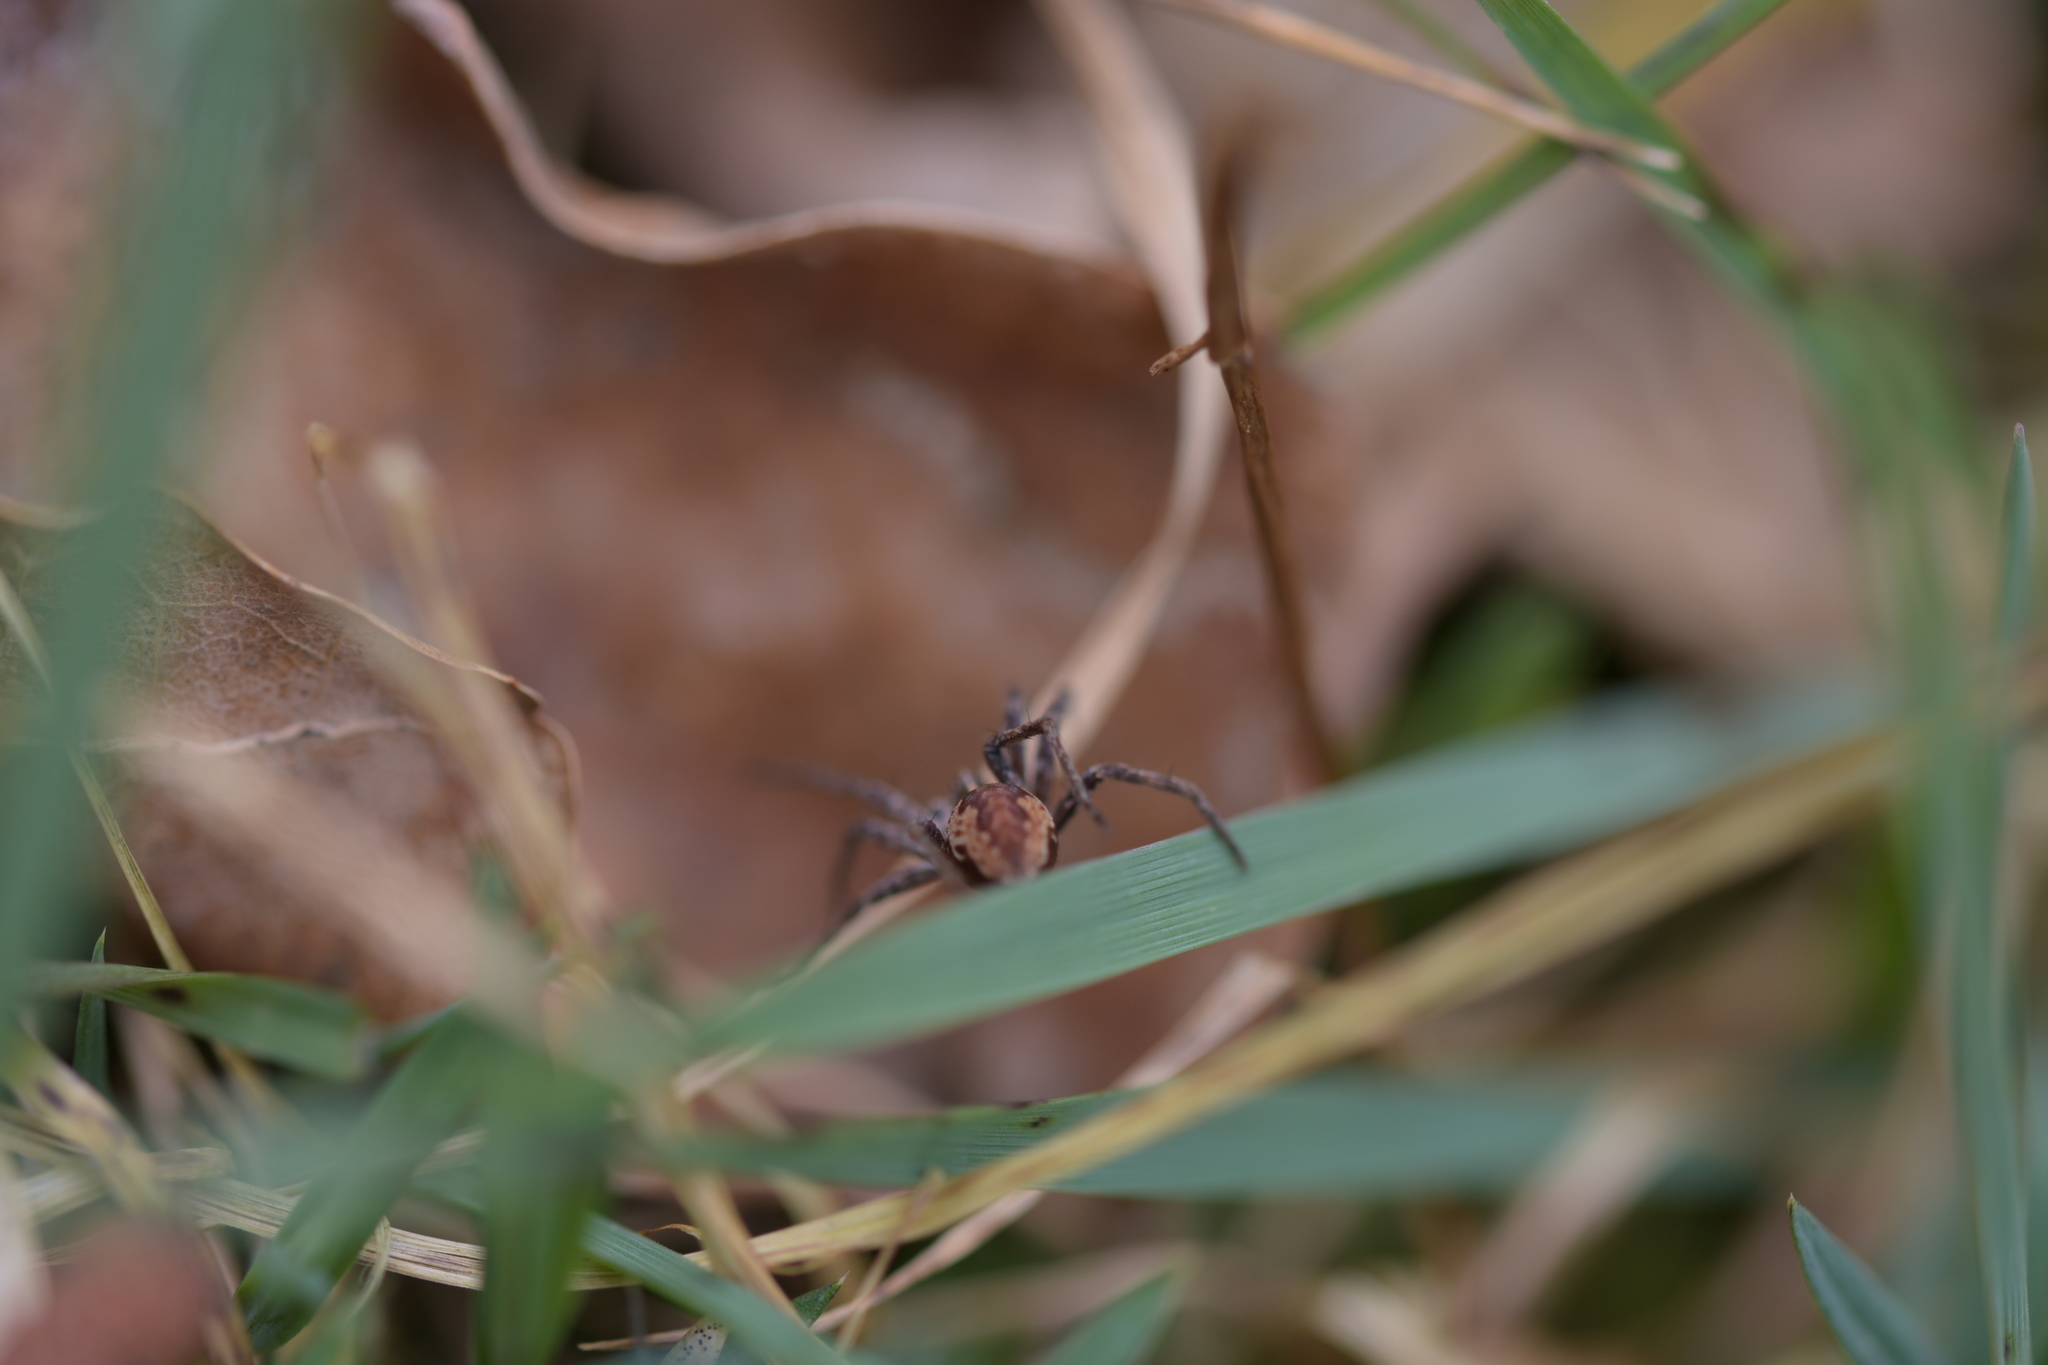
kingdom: Animalia
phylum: Arthropoda
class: Arachnida
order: Araneae
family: Pisauridae
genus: Pisaura
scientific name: Pisaura mirabilis
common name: Tent spider
